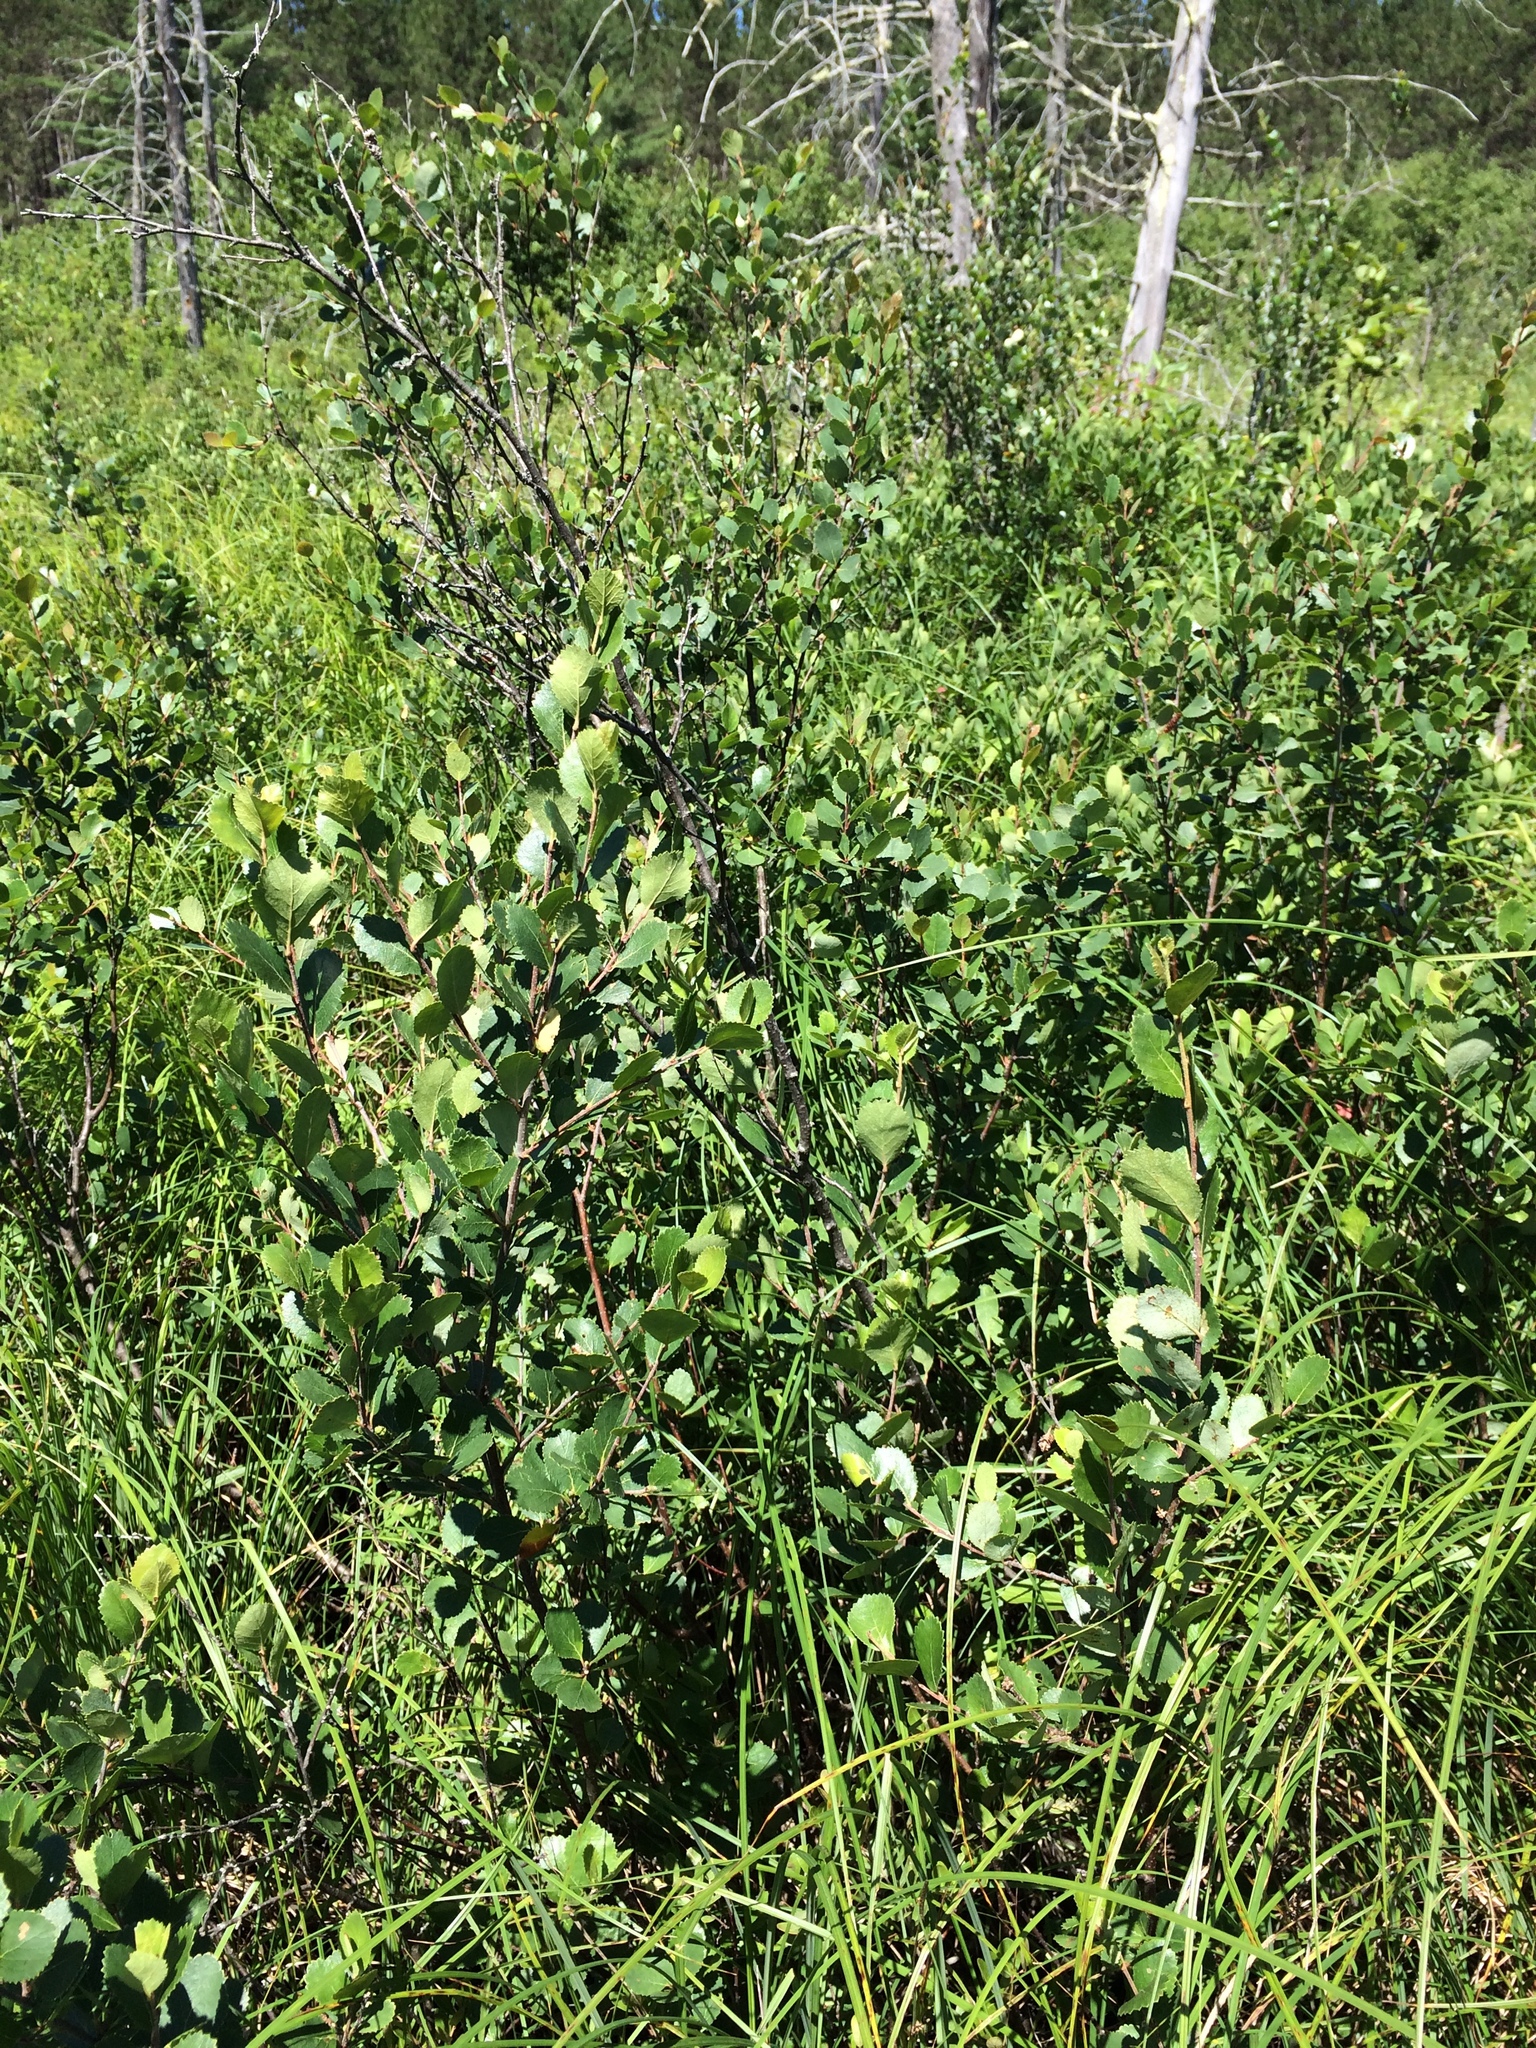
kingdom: Plantae
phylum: Tracheophyta
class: Magnoliopsida
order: Fagales
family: Betulaceae
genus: Betula
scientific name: Betula pumila
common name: Bog birch
